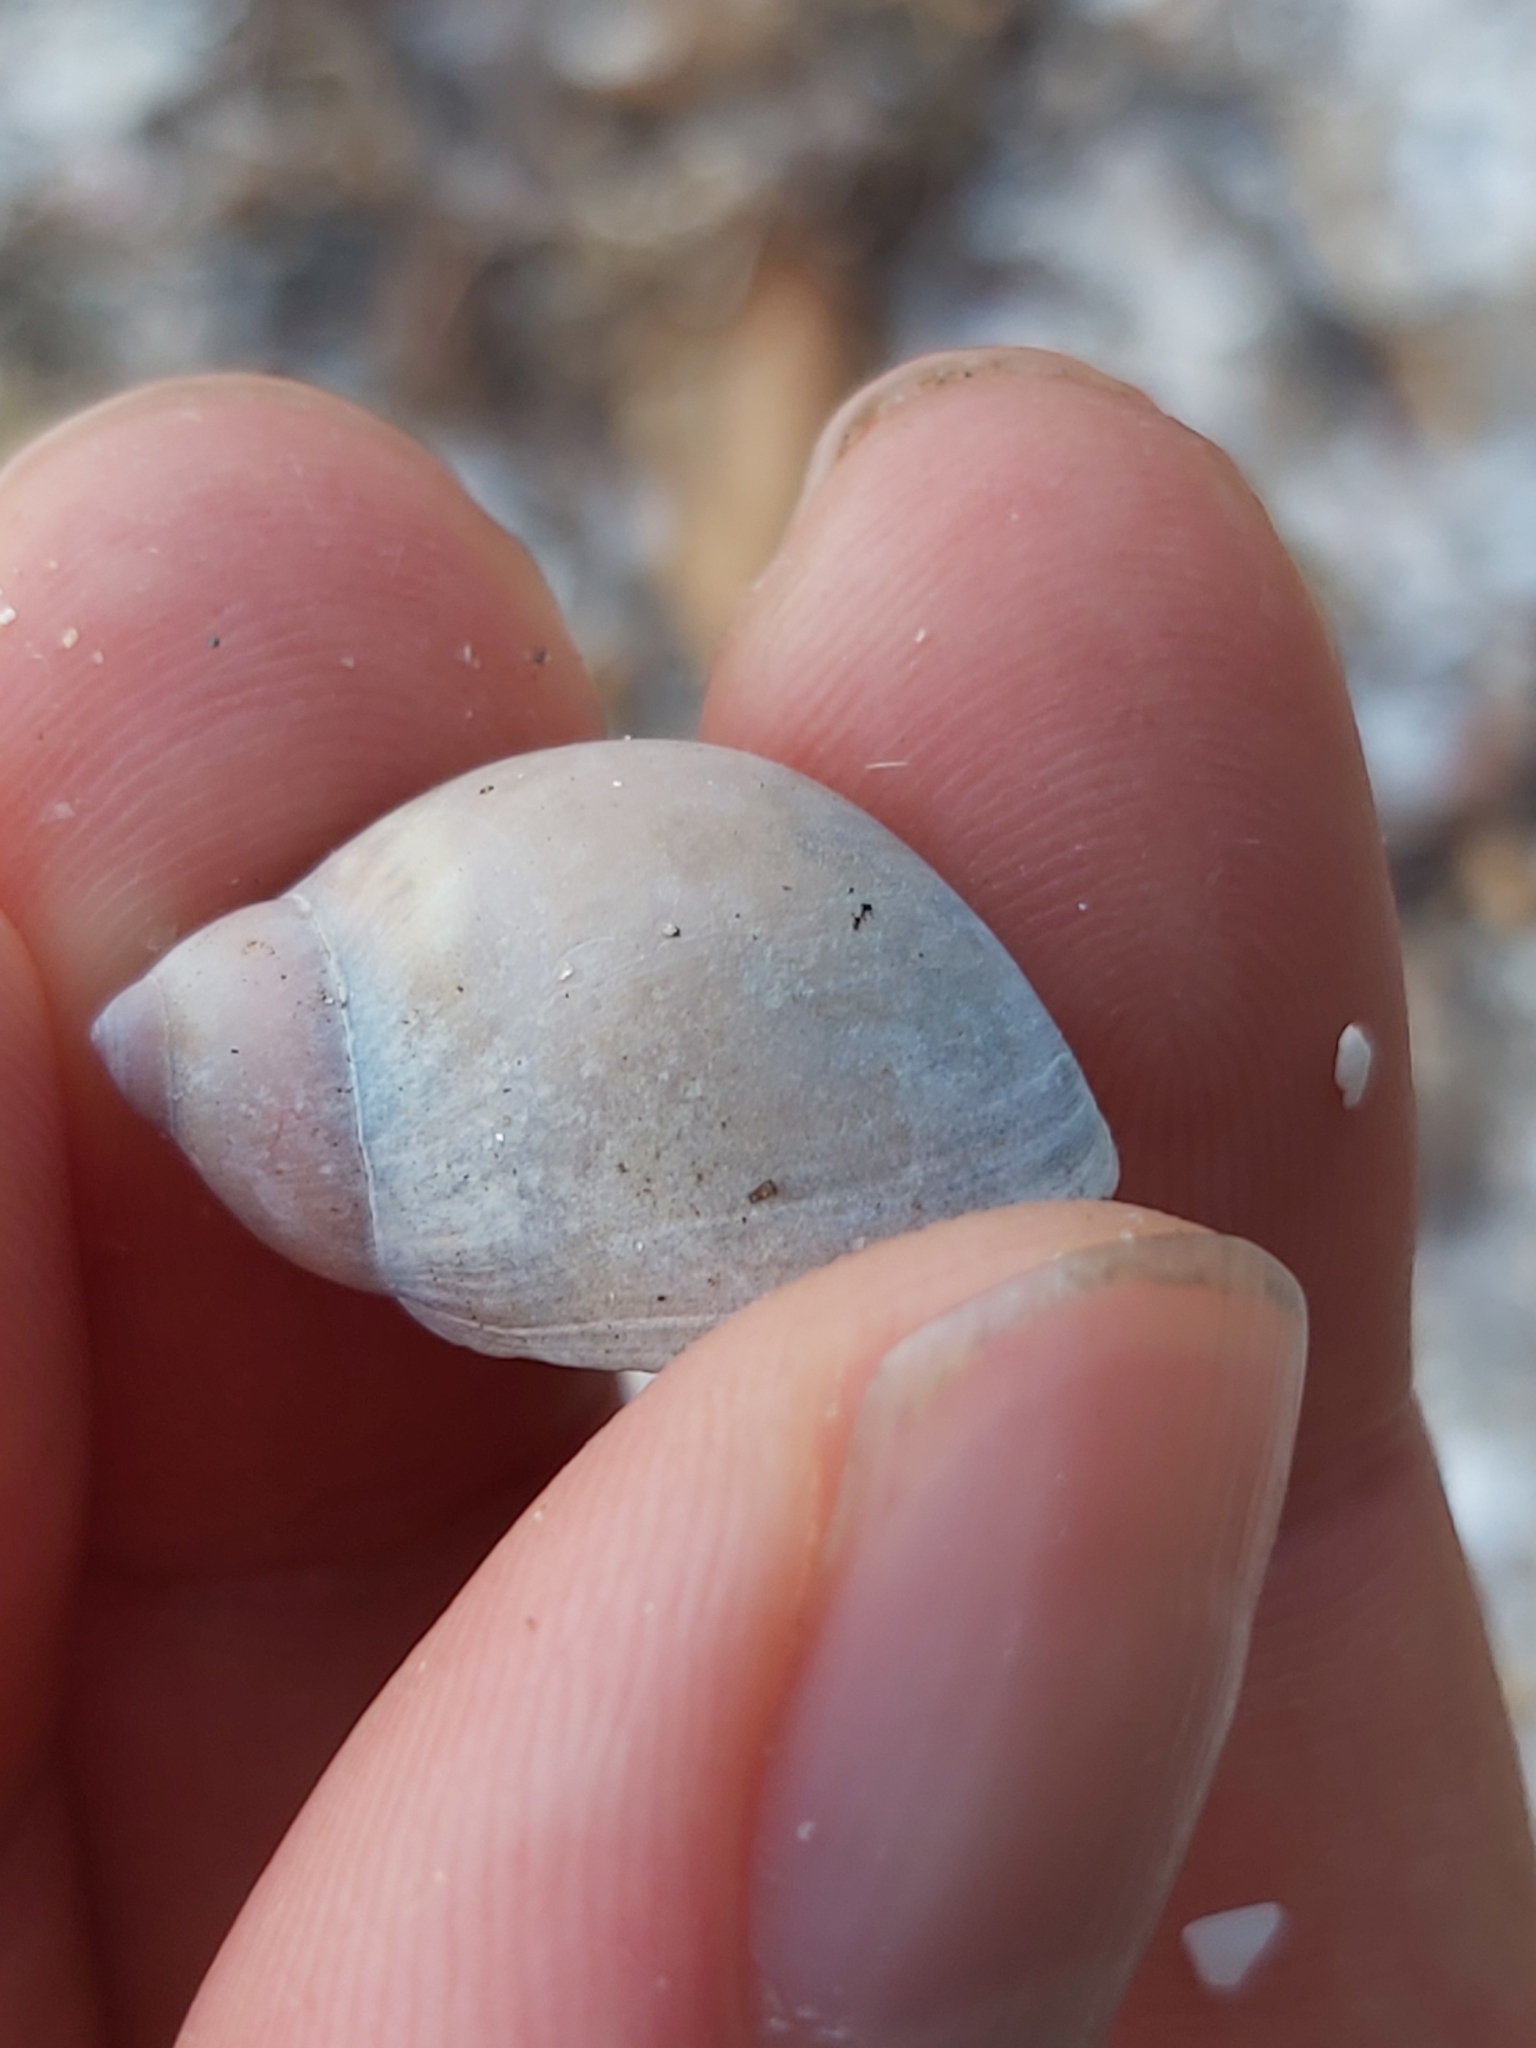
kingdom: Animalia
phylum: Mollusca
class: Gastropoda
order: Littorinimorpha
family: Naticidae
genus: Conuber
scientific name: Conuber conicum
